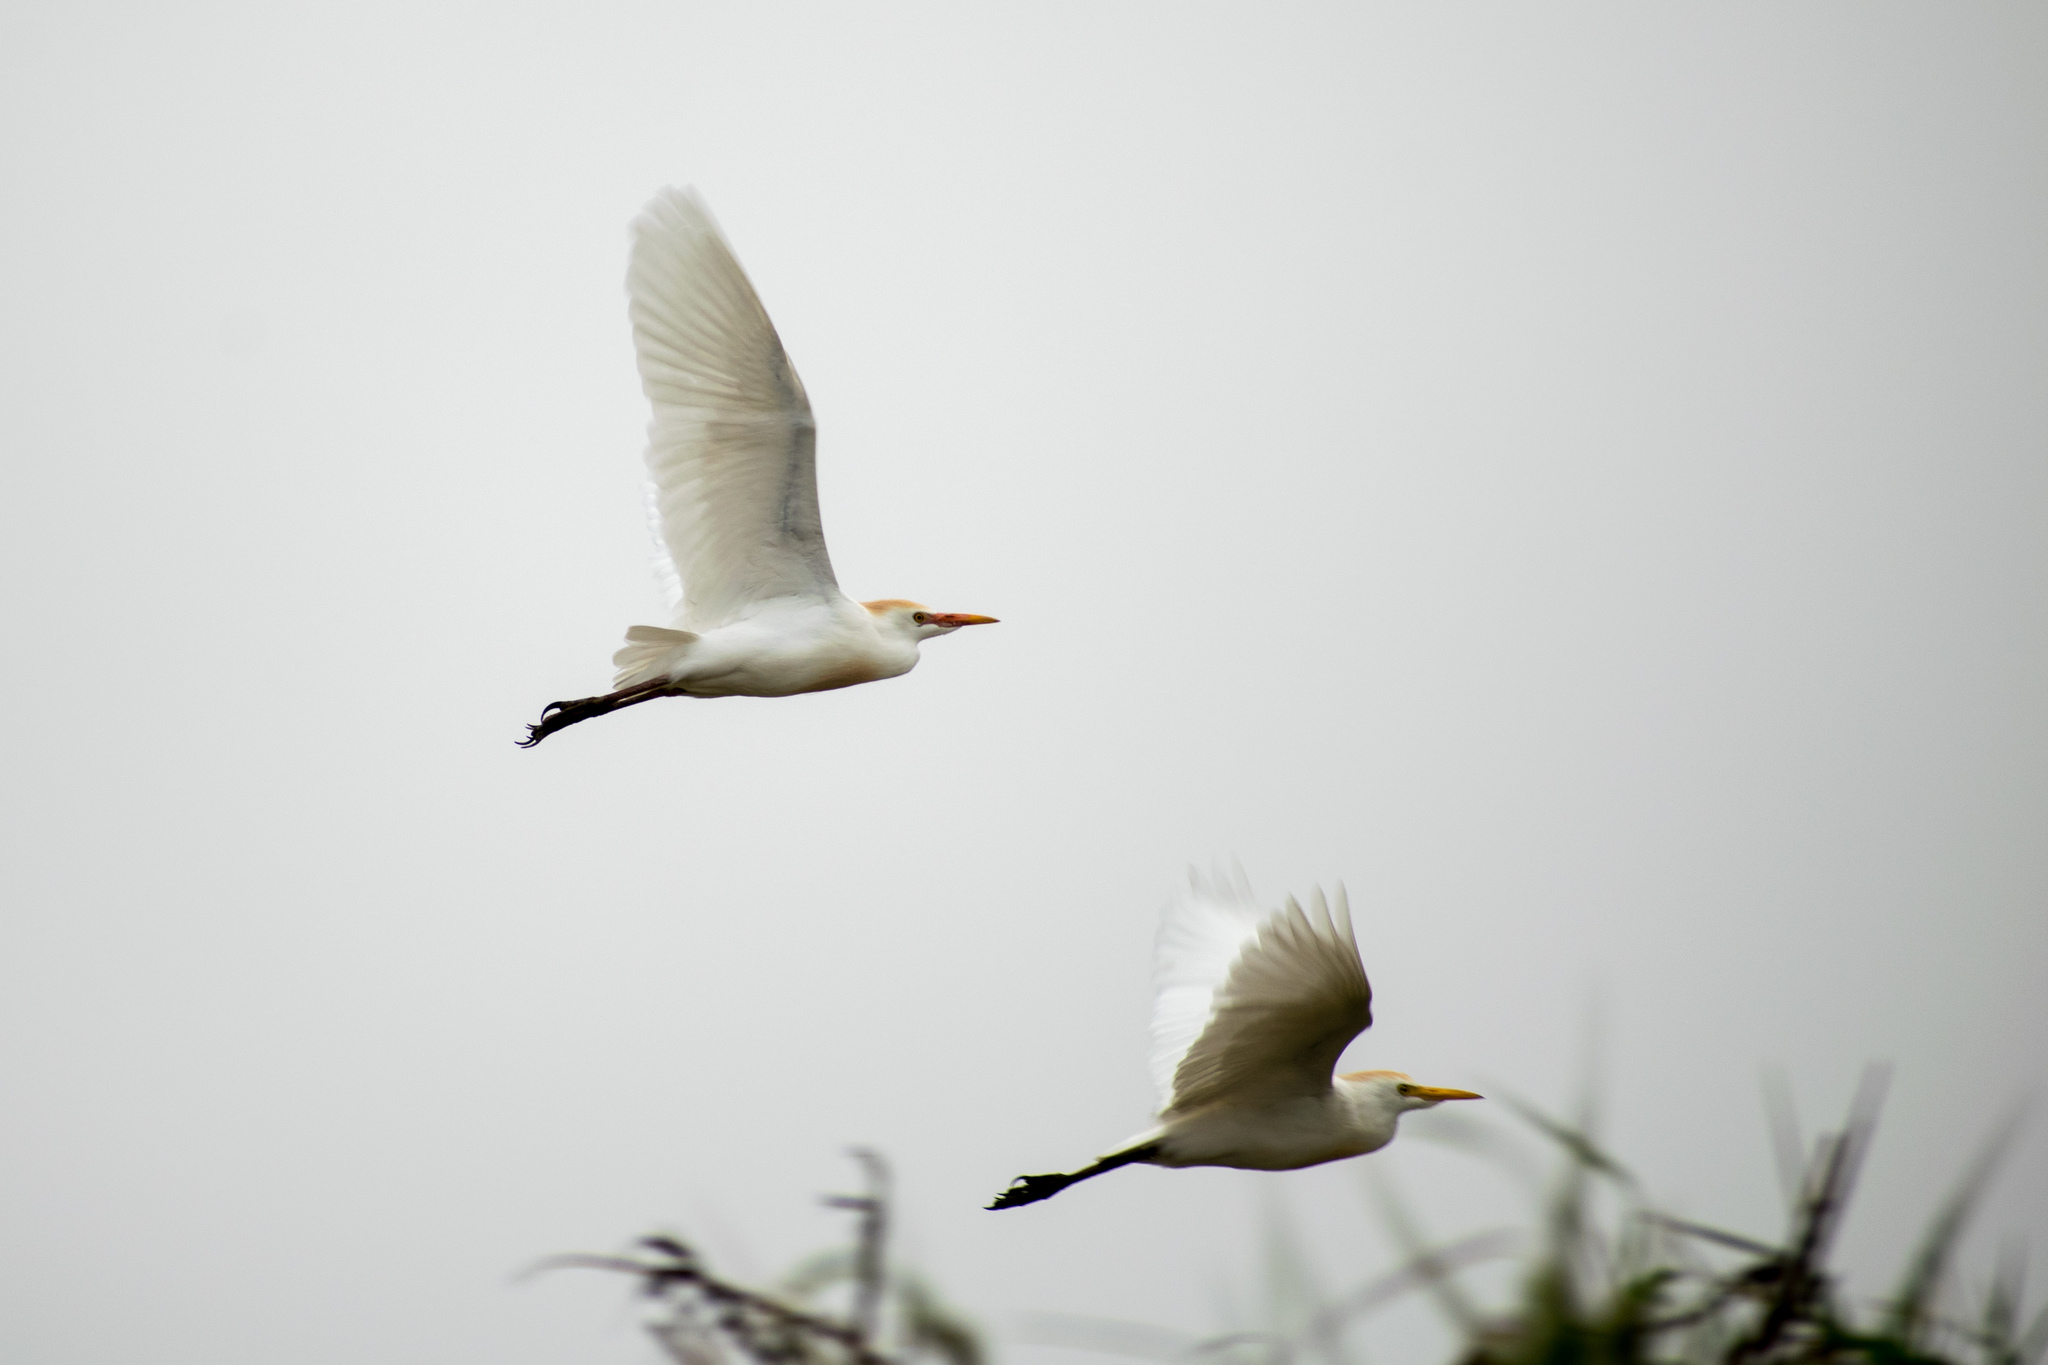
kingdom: Animalia
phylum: Chordata
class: Aves
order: Pelecaniformes
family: Ardeidae
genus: Bubulcus
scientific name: Bubulcus ibis
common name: Cattle egret
